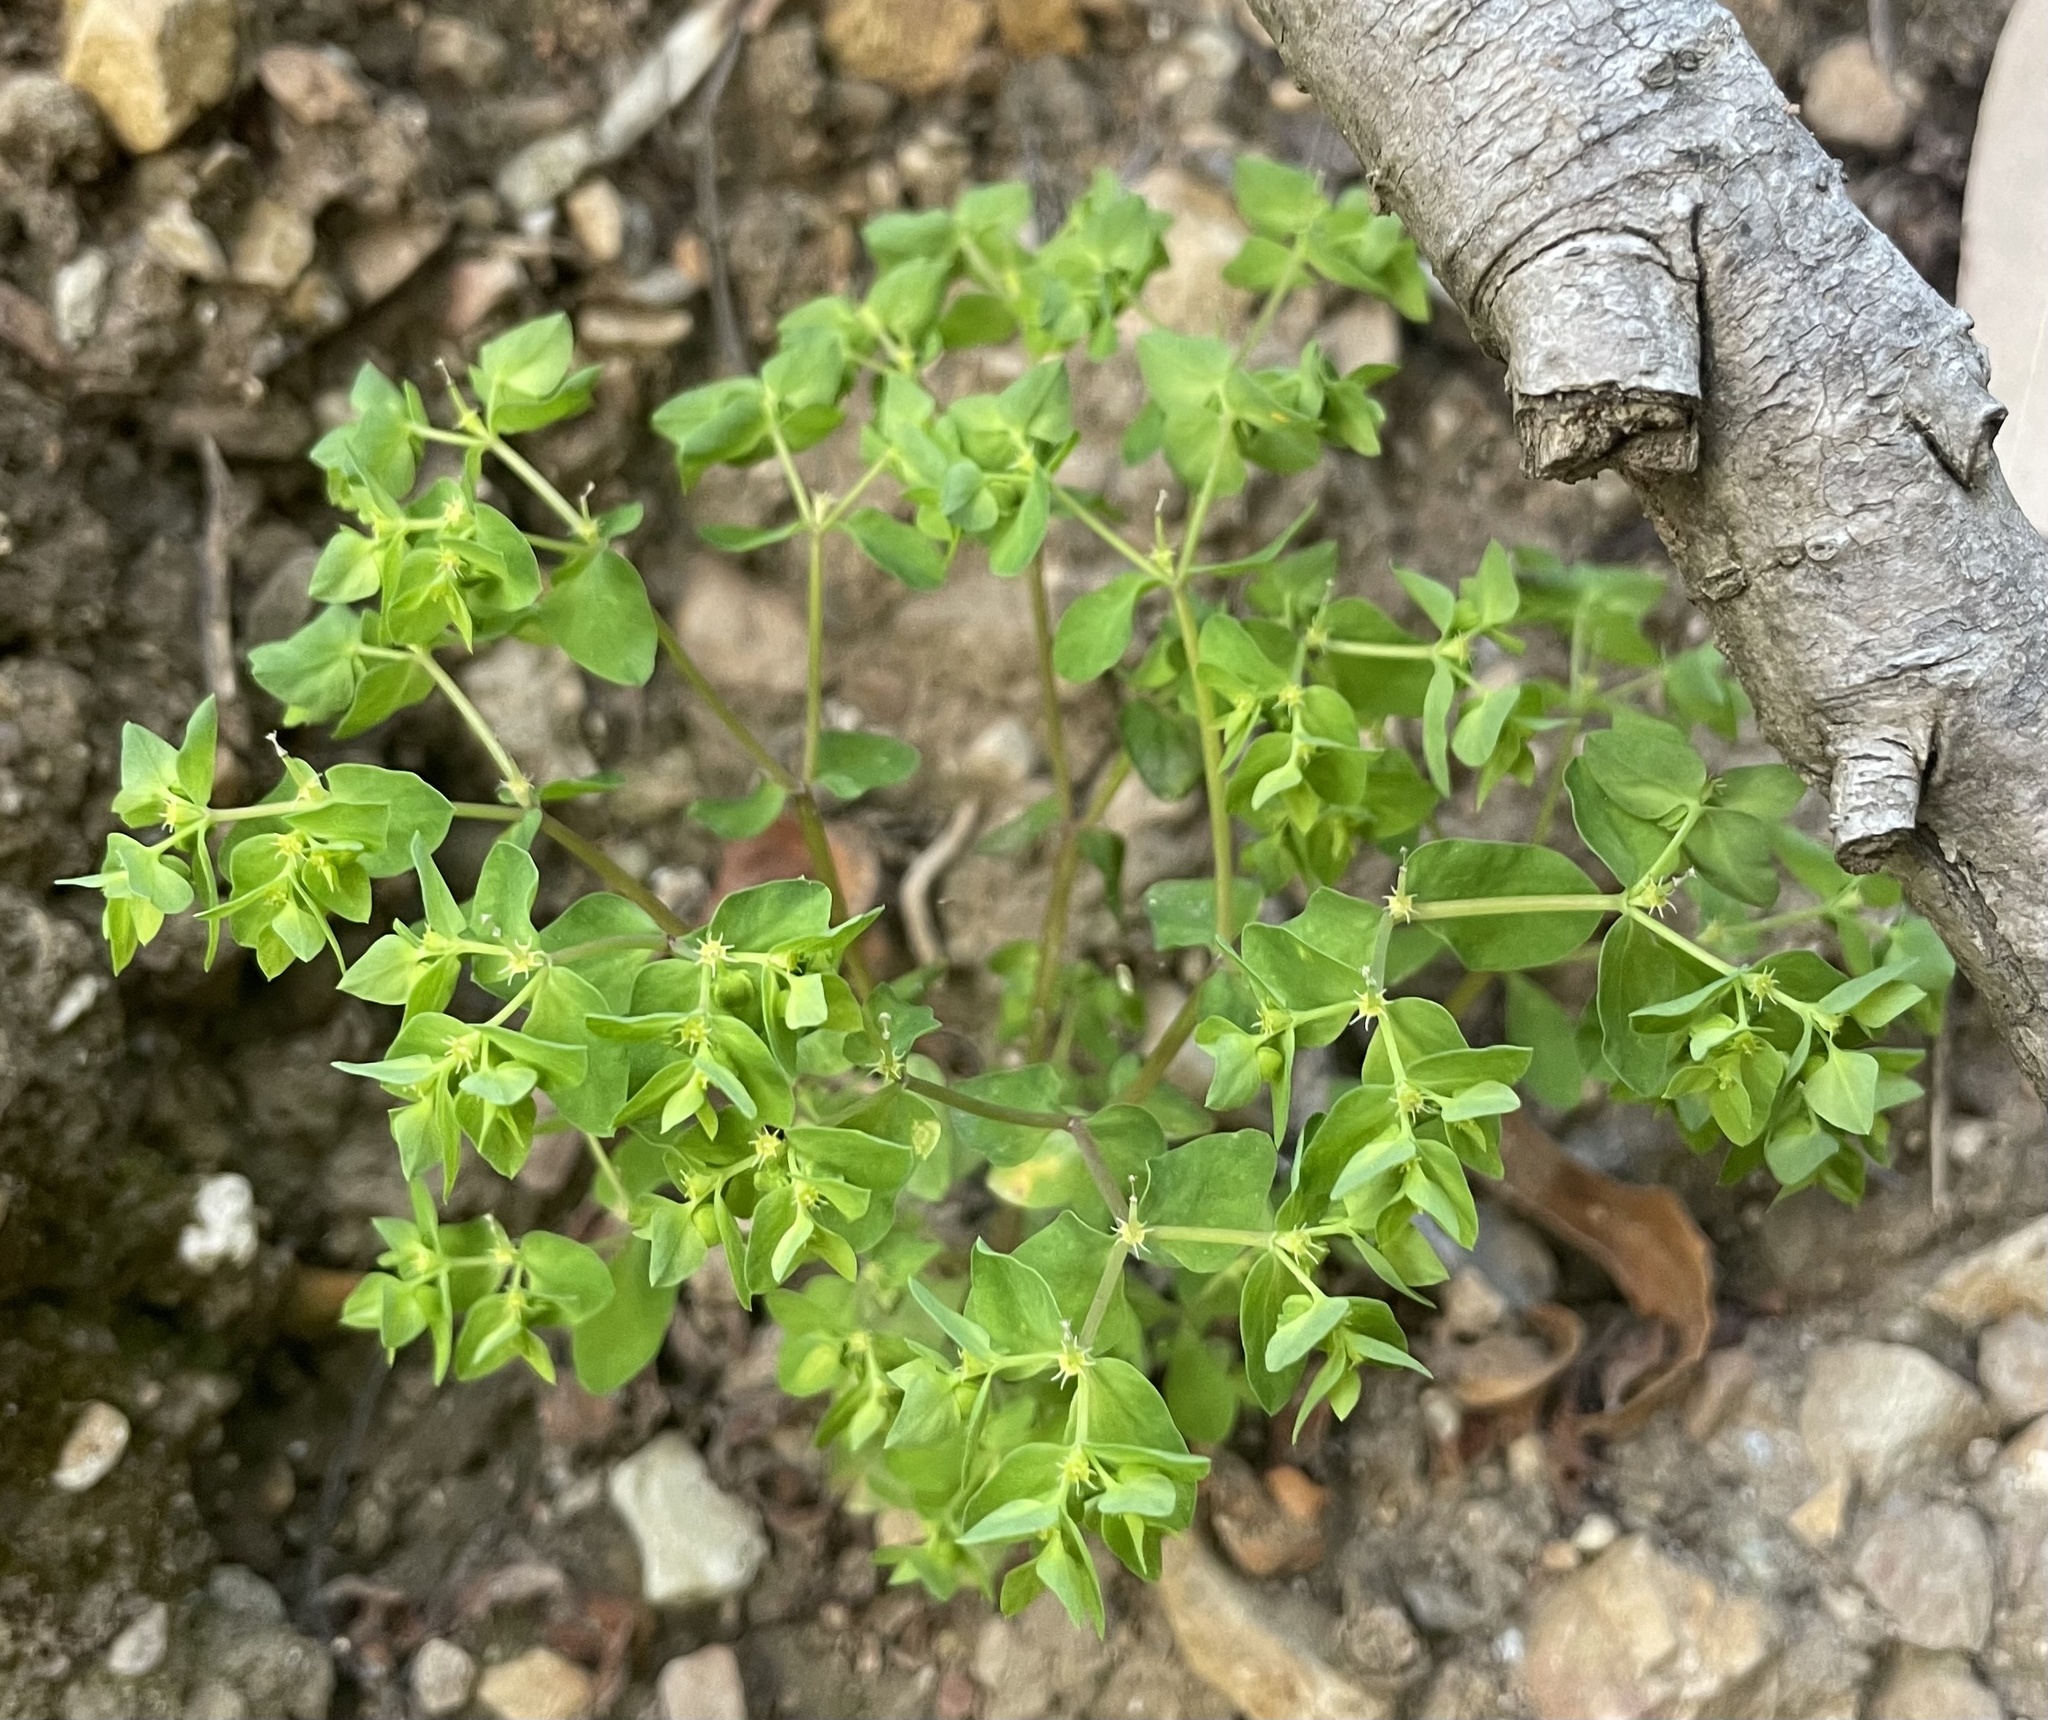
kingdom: Plantae
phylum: Tracheophyta
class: Magnoliopsida
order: Malpighiales
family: Euphorbiaceae
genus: Euphorbia
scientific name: Euphorbia peplus
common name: Petty spurge
